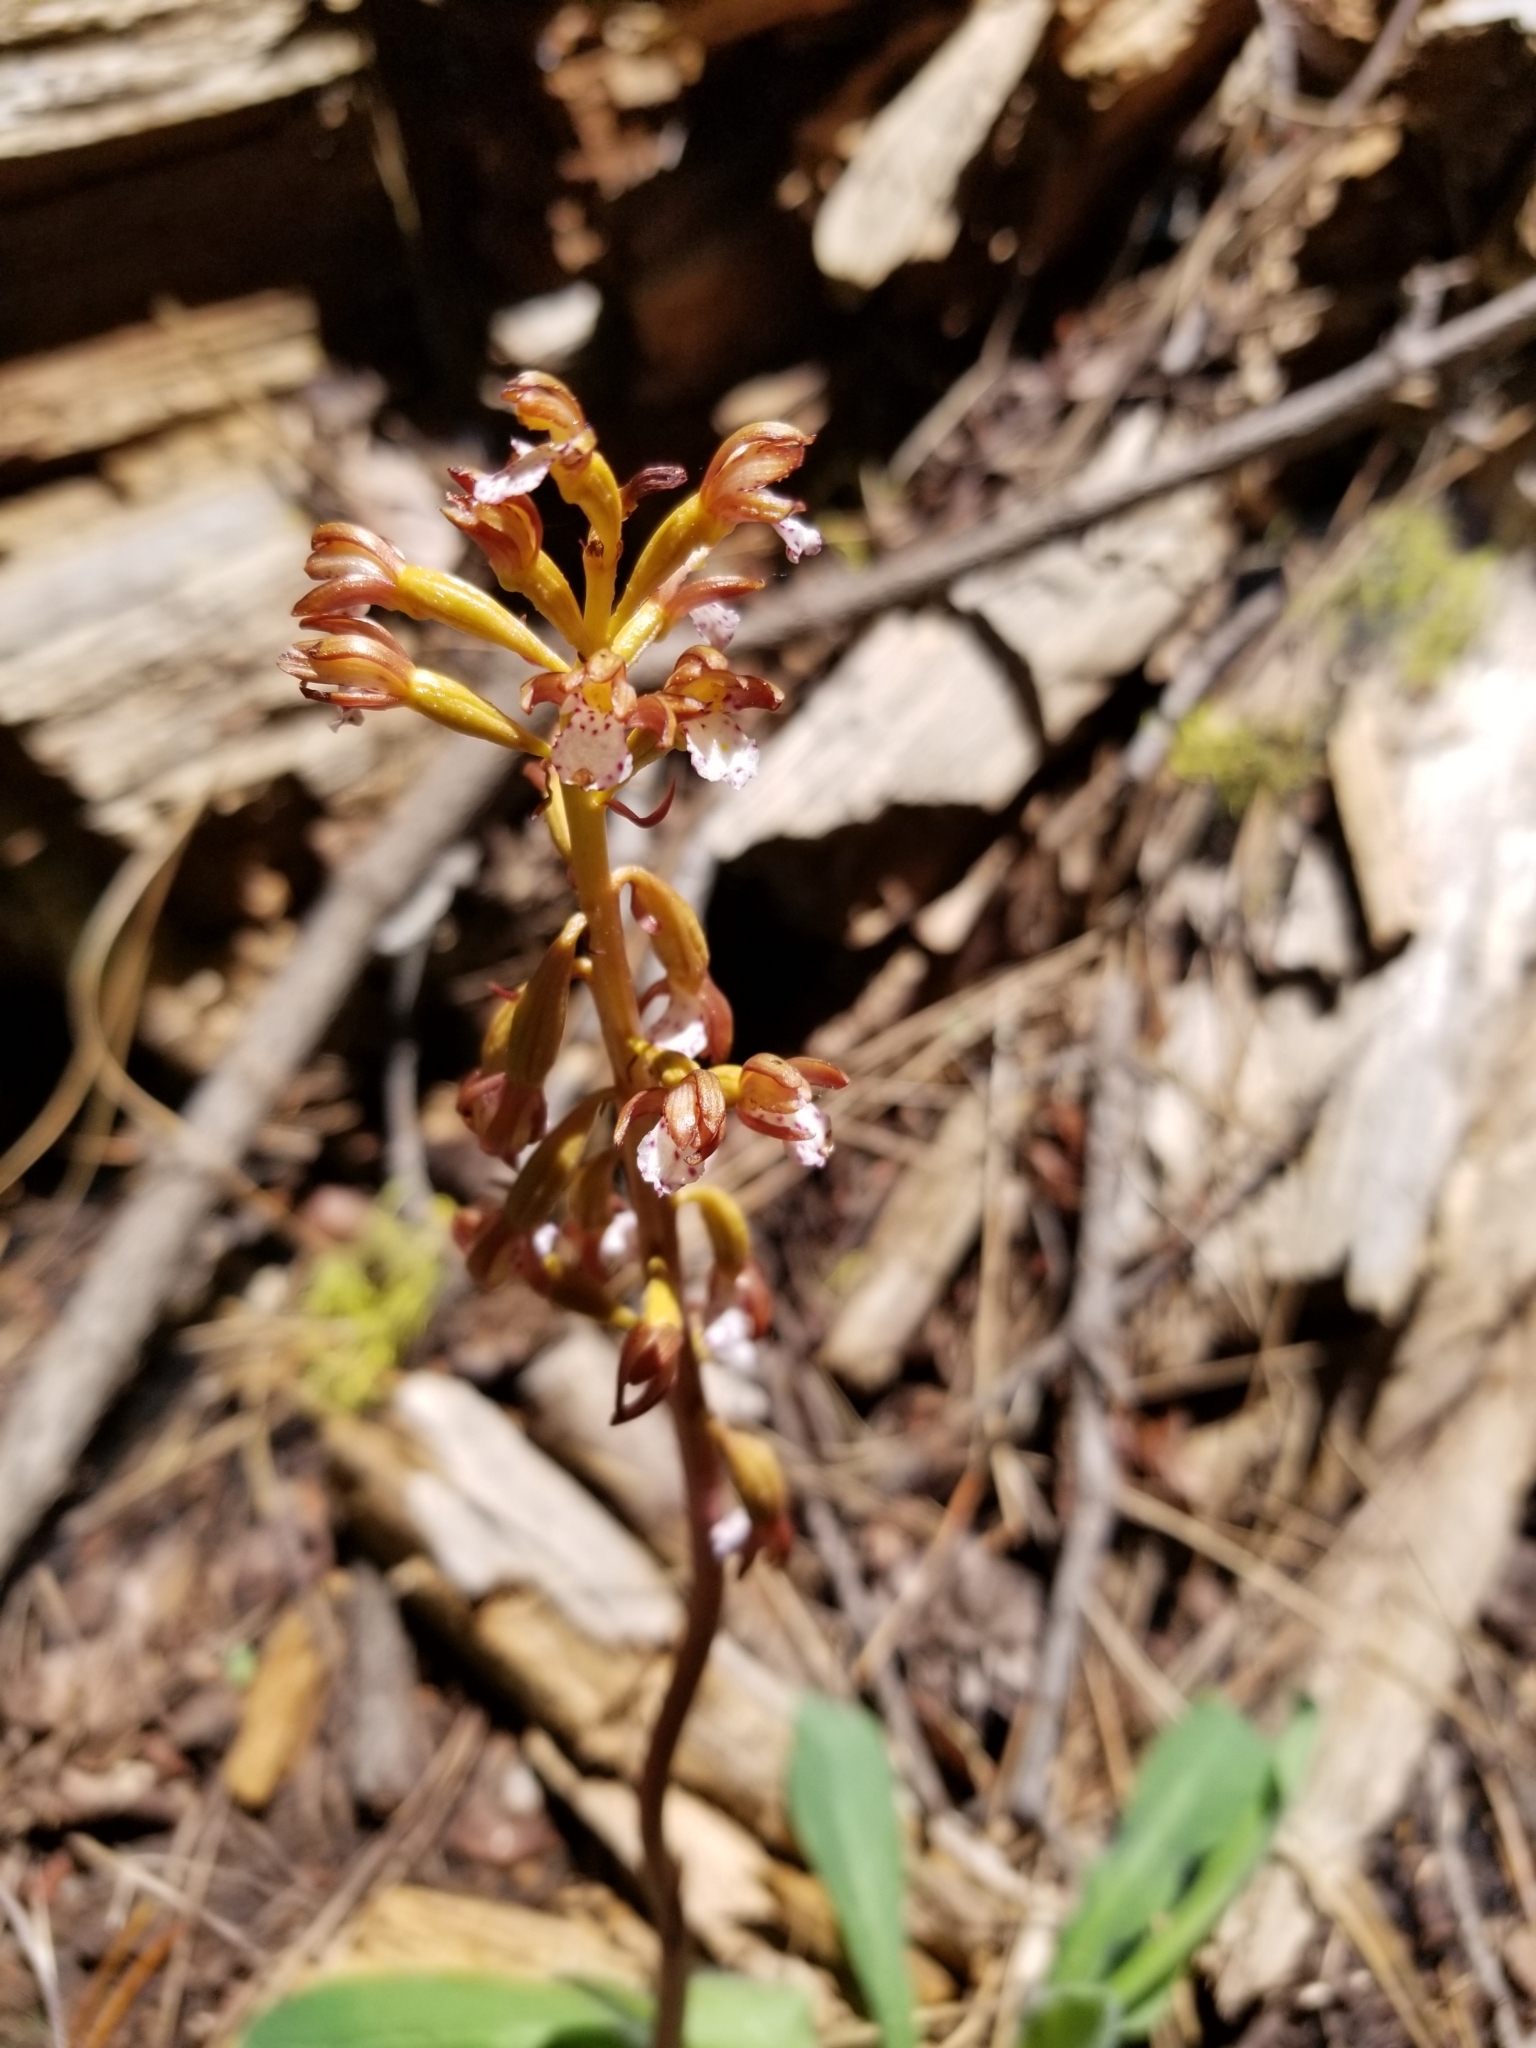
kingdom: Plantae
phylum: Tracheophyta
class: Liliopsida
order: Asparagales
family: Orchidaceae
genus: Corallorhiza
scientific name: Corallorhiza maculata
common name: Spotted coralroot
